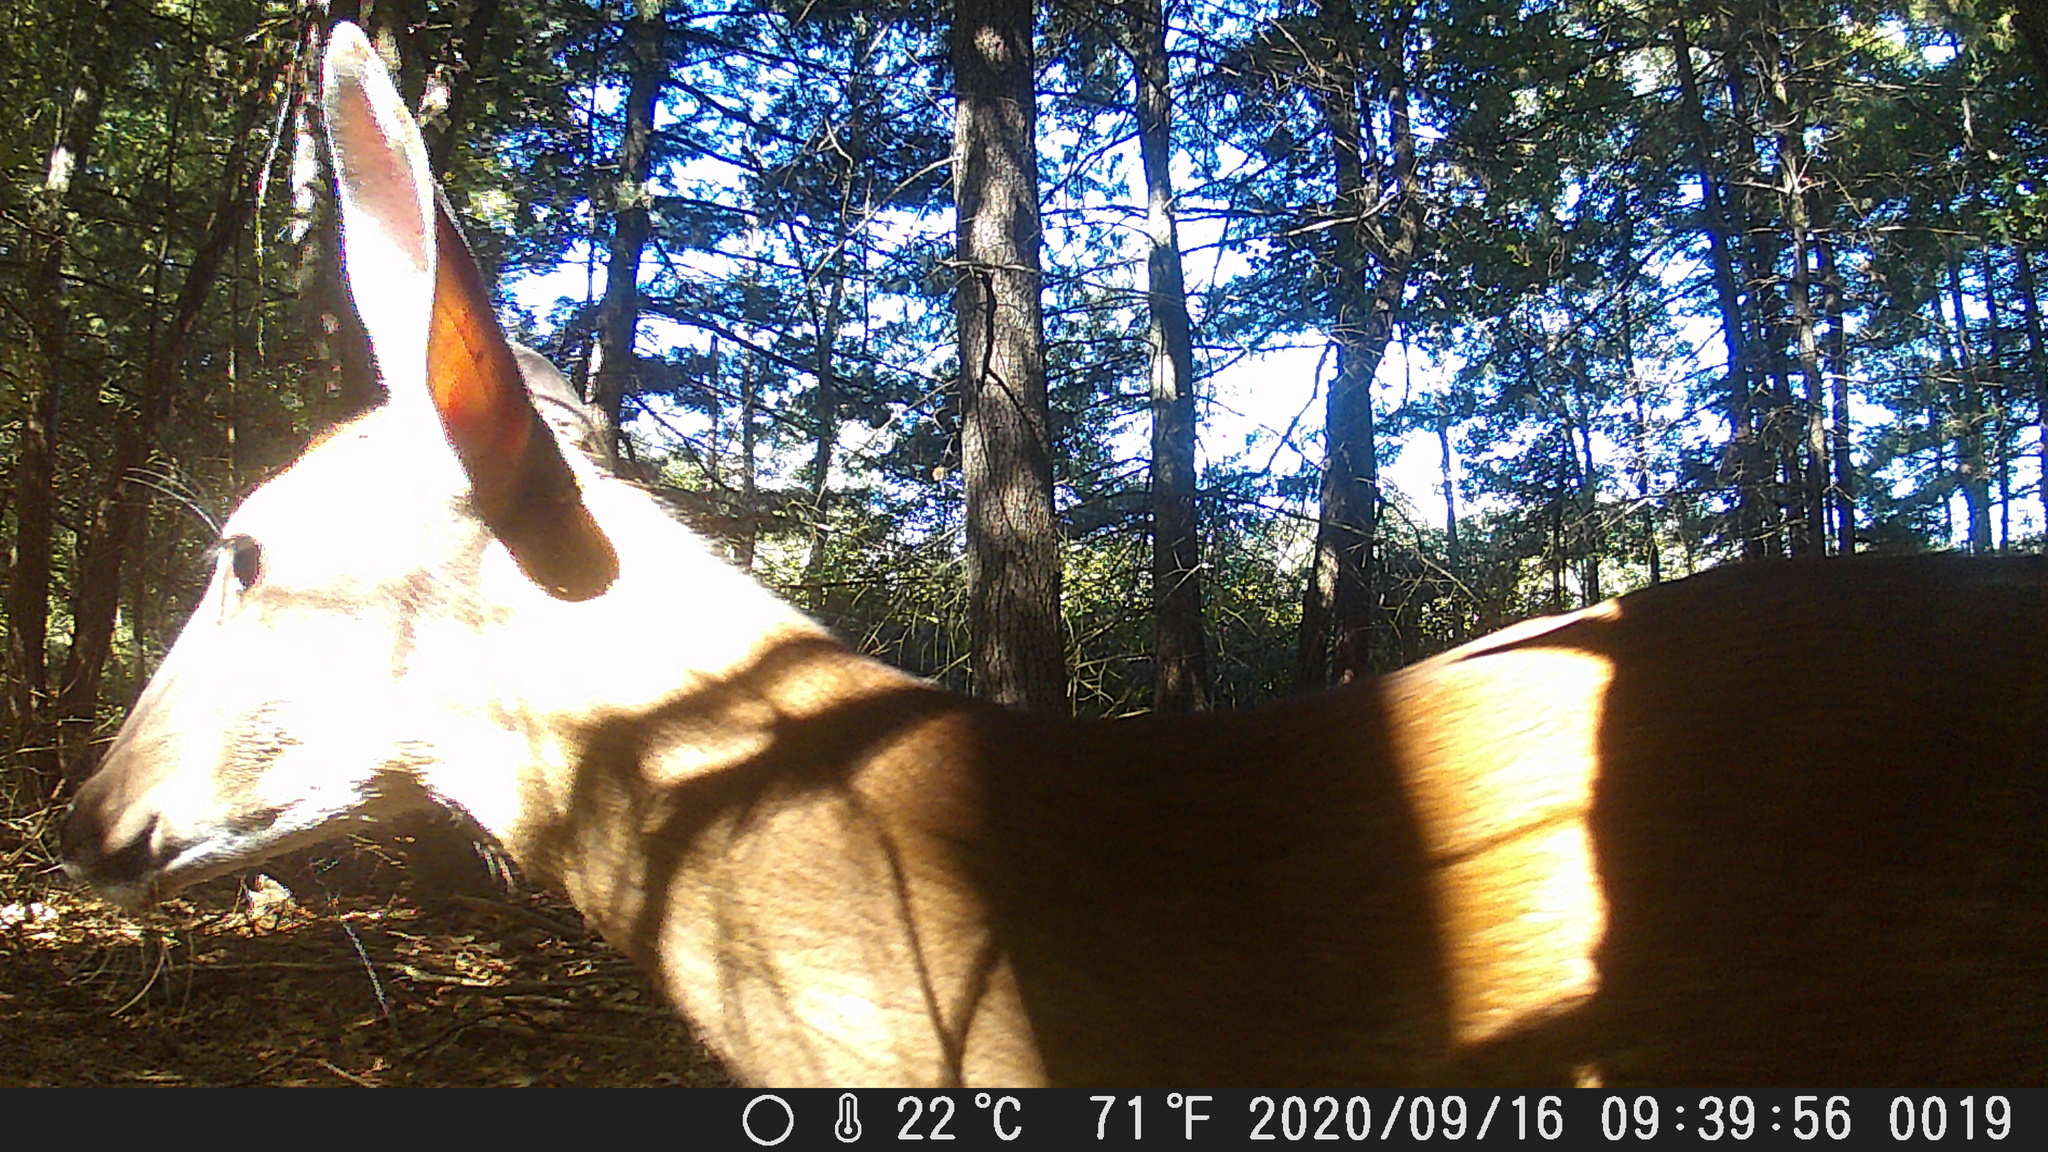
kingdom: Animalia
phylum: Chordata
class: Mammalia
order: Artiodactyla
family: Cervidae
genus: Odocoileus
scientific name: Odocoileus virginianus
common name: White-tailed deer
